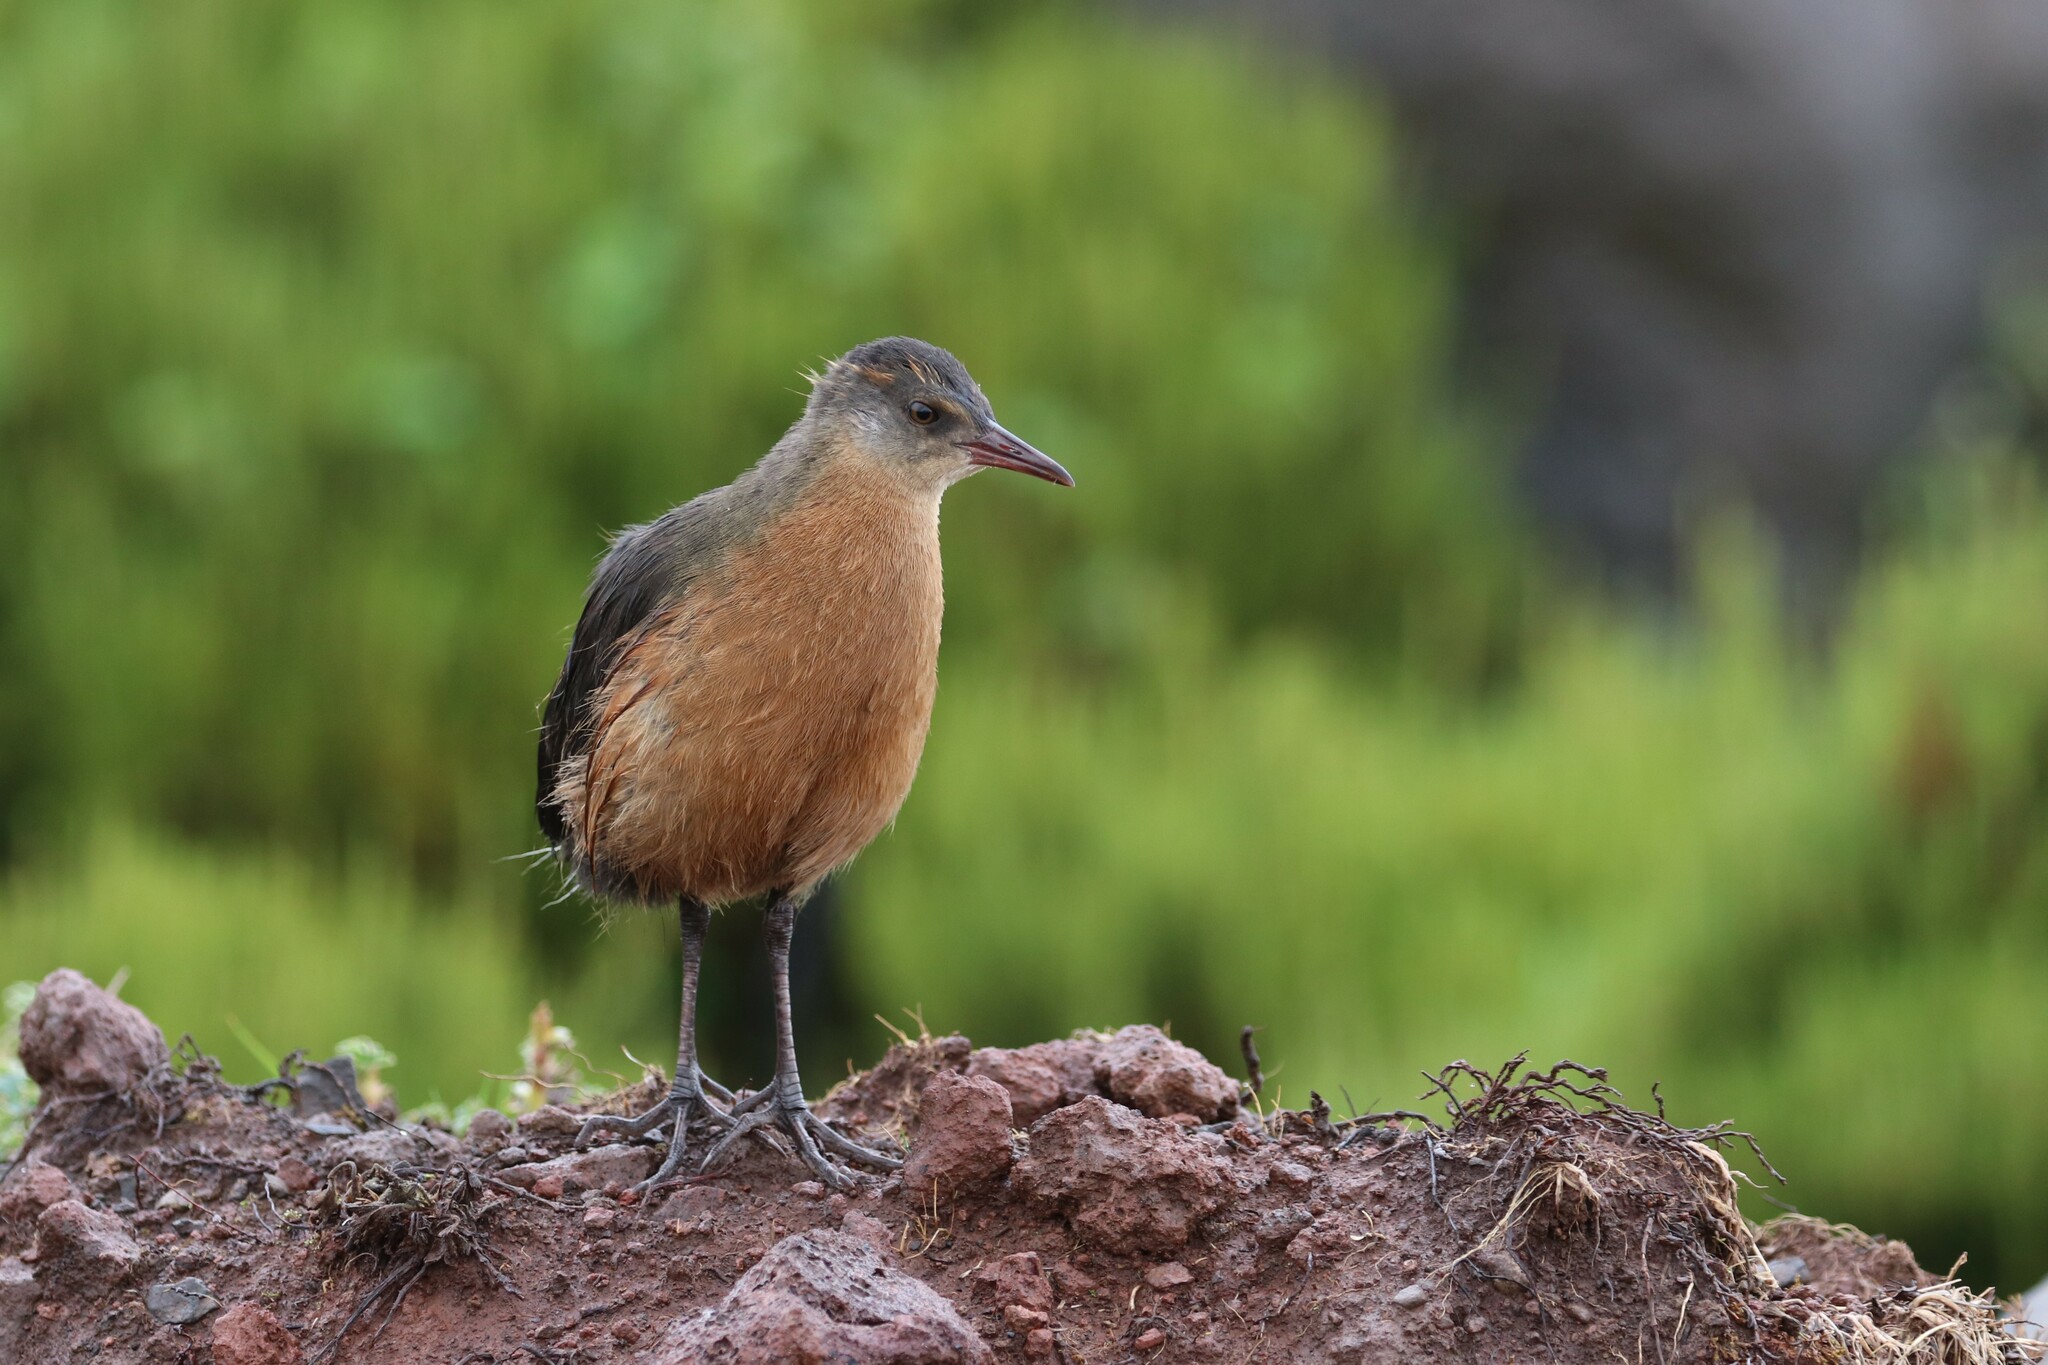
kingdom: Animalia
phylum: Chordata
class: Aves
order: Gruiformes
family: Rallidae
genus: Rougetius
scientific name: Rougetius rougetii
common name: Rouget's rail
